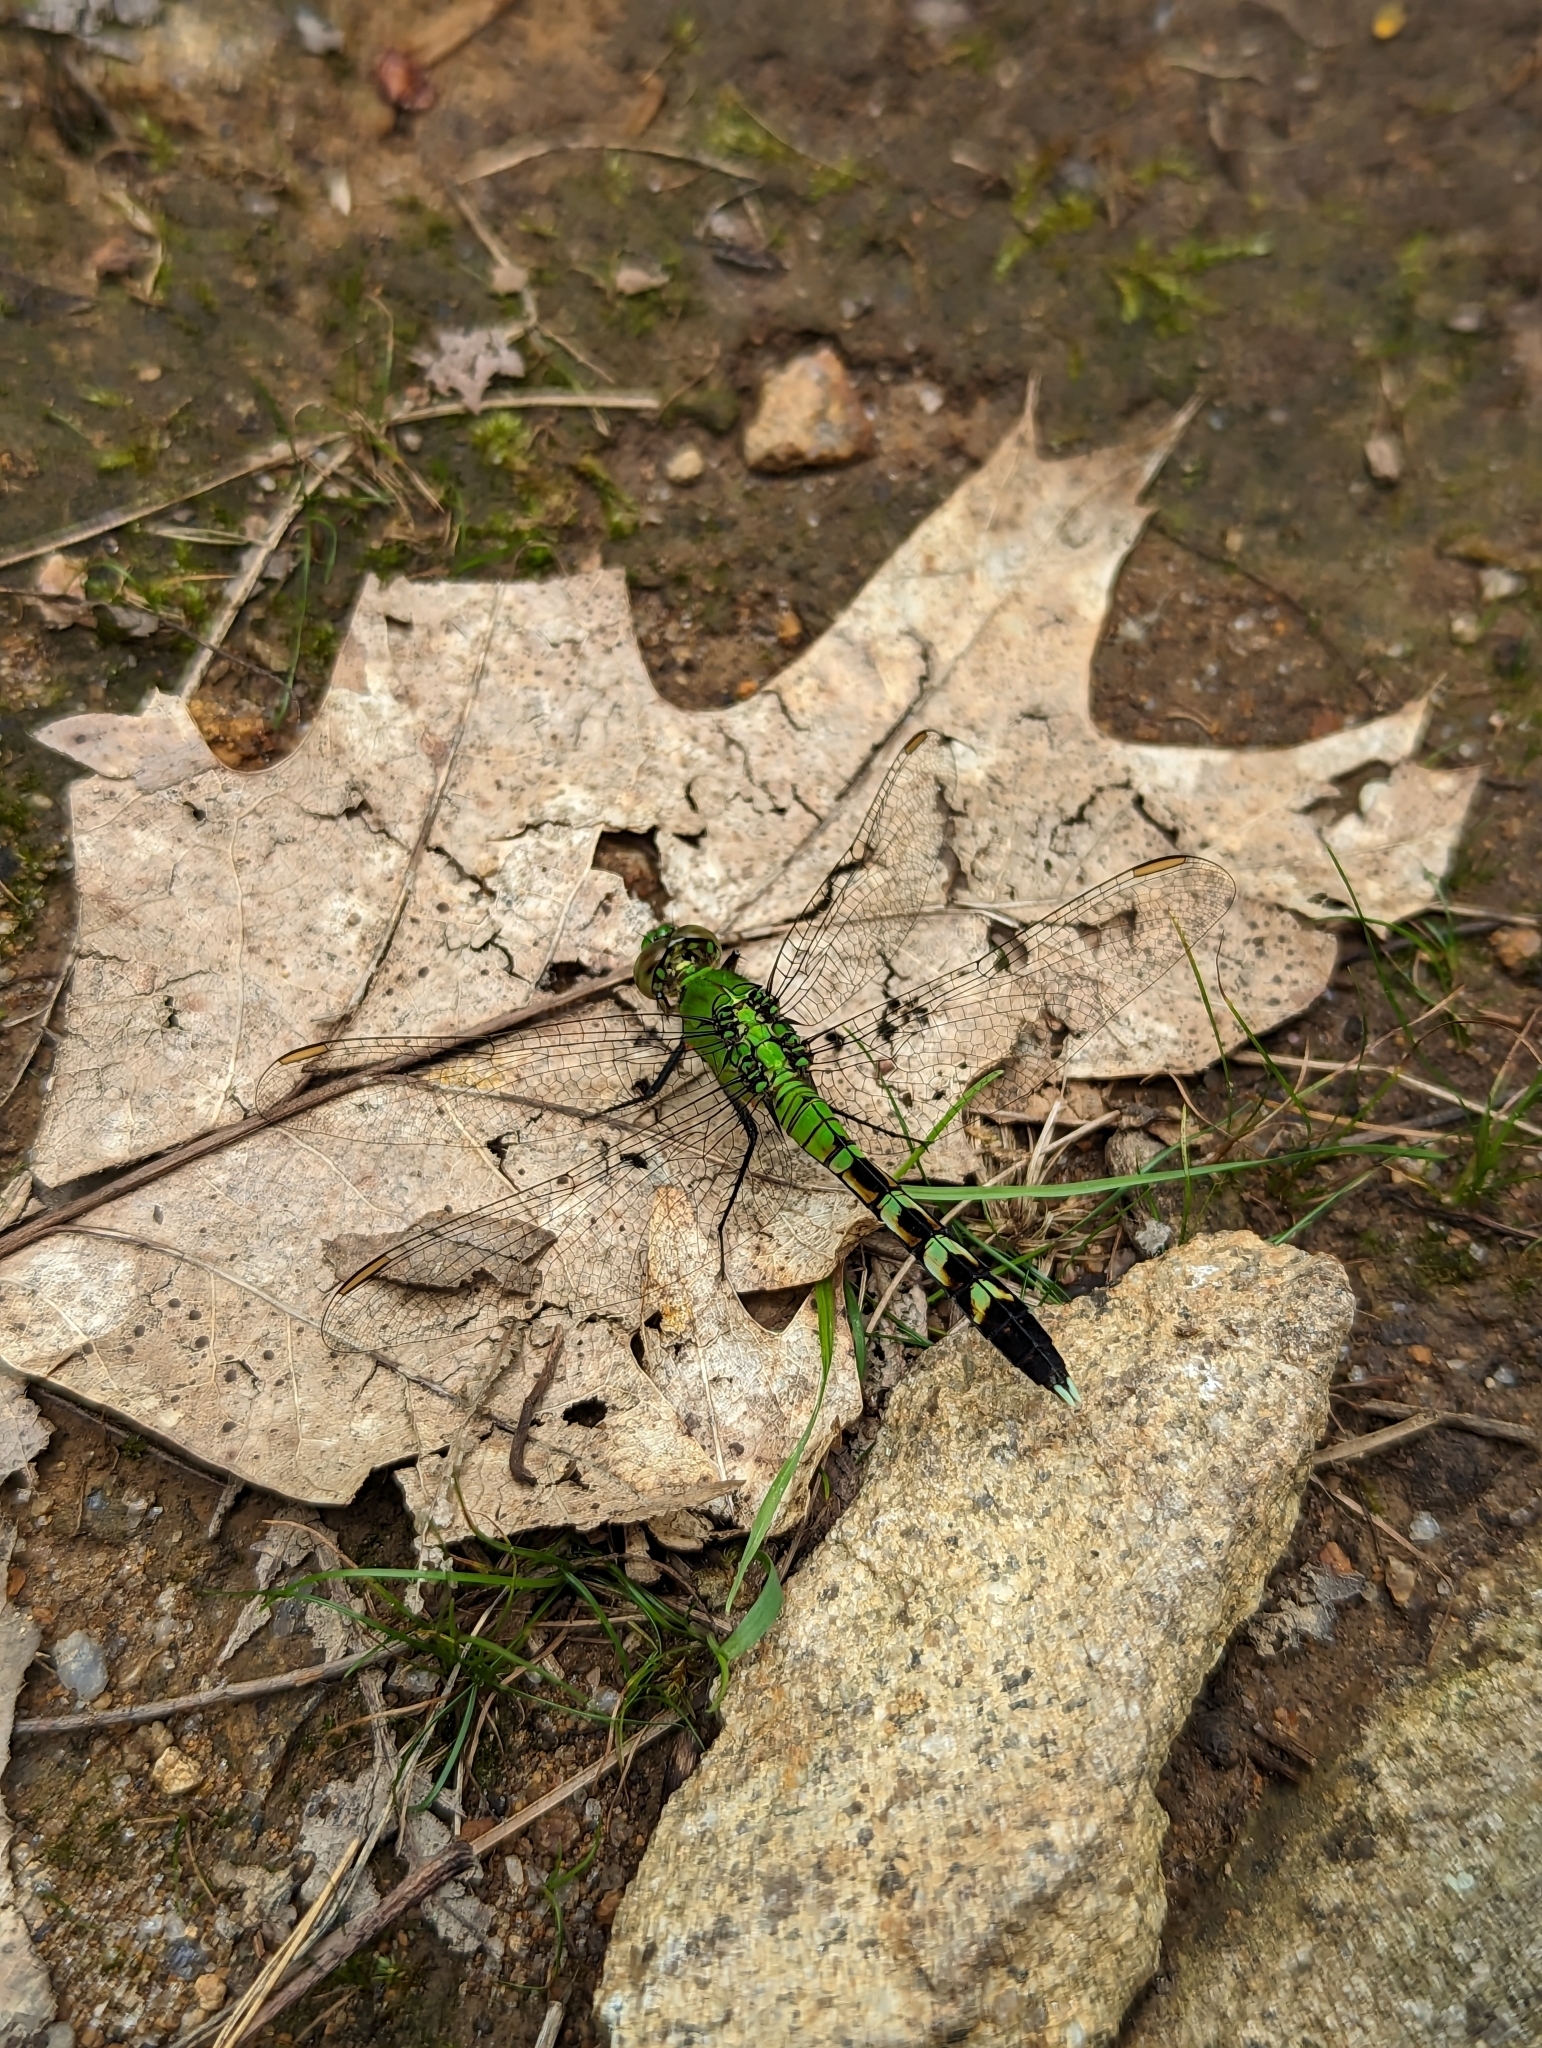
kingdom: Animalia
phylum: Arthropoda
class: Insecta
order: Odonata
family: Libellulidae
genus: Erythemis
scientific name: Erythemis simplicicollis
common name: Eastern pondhawk
